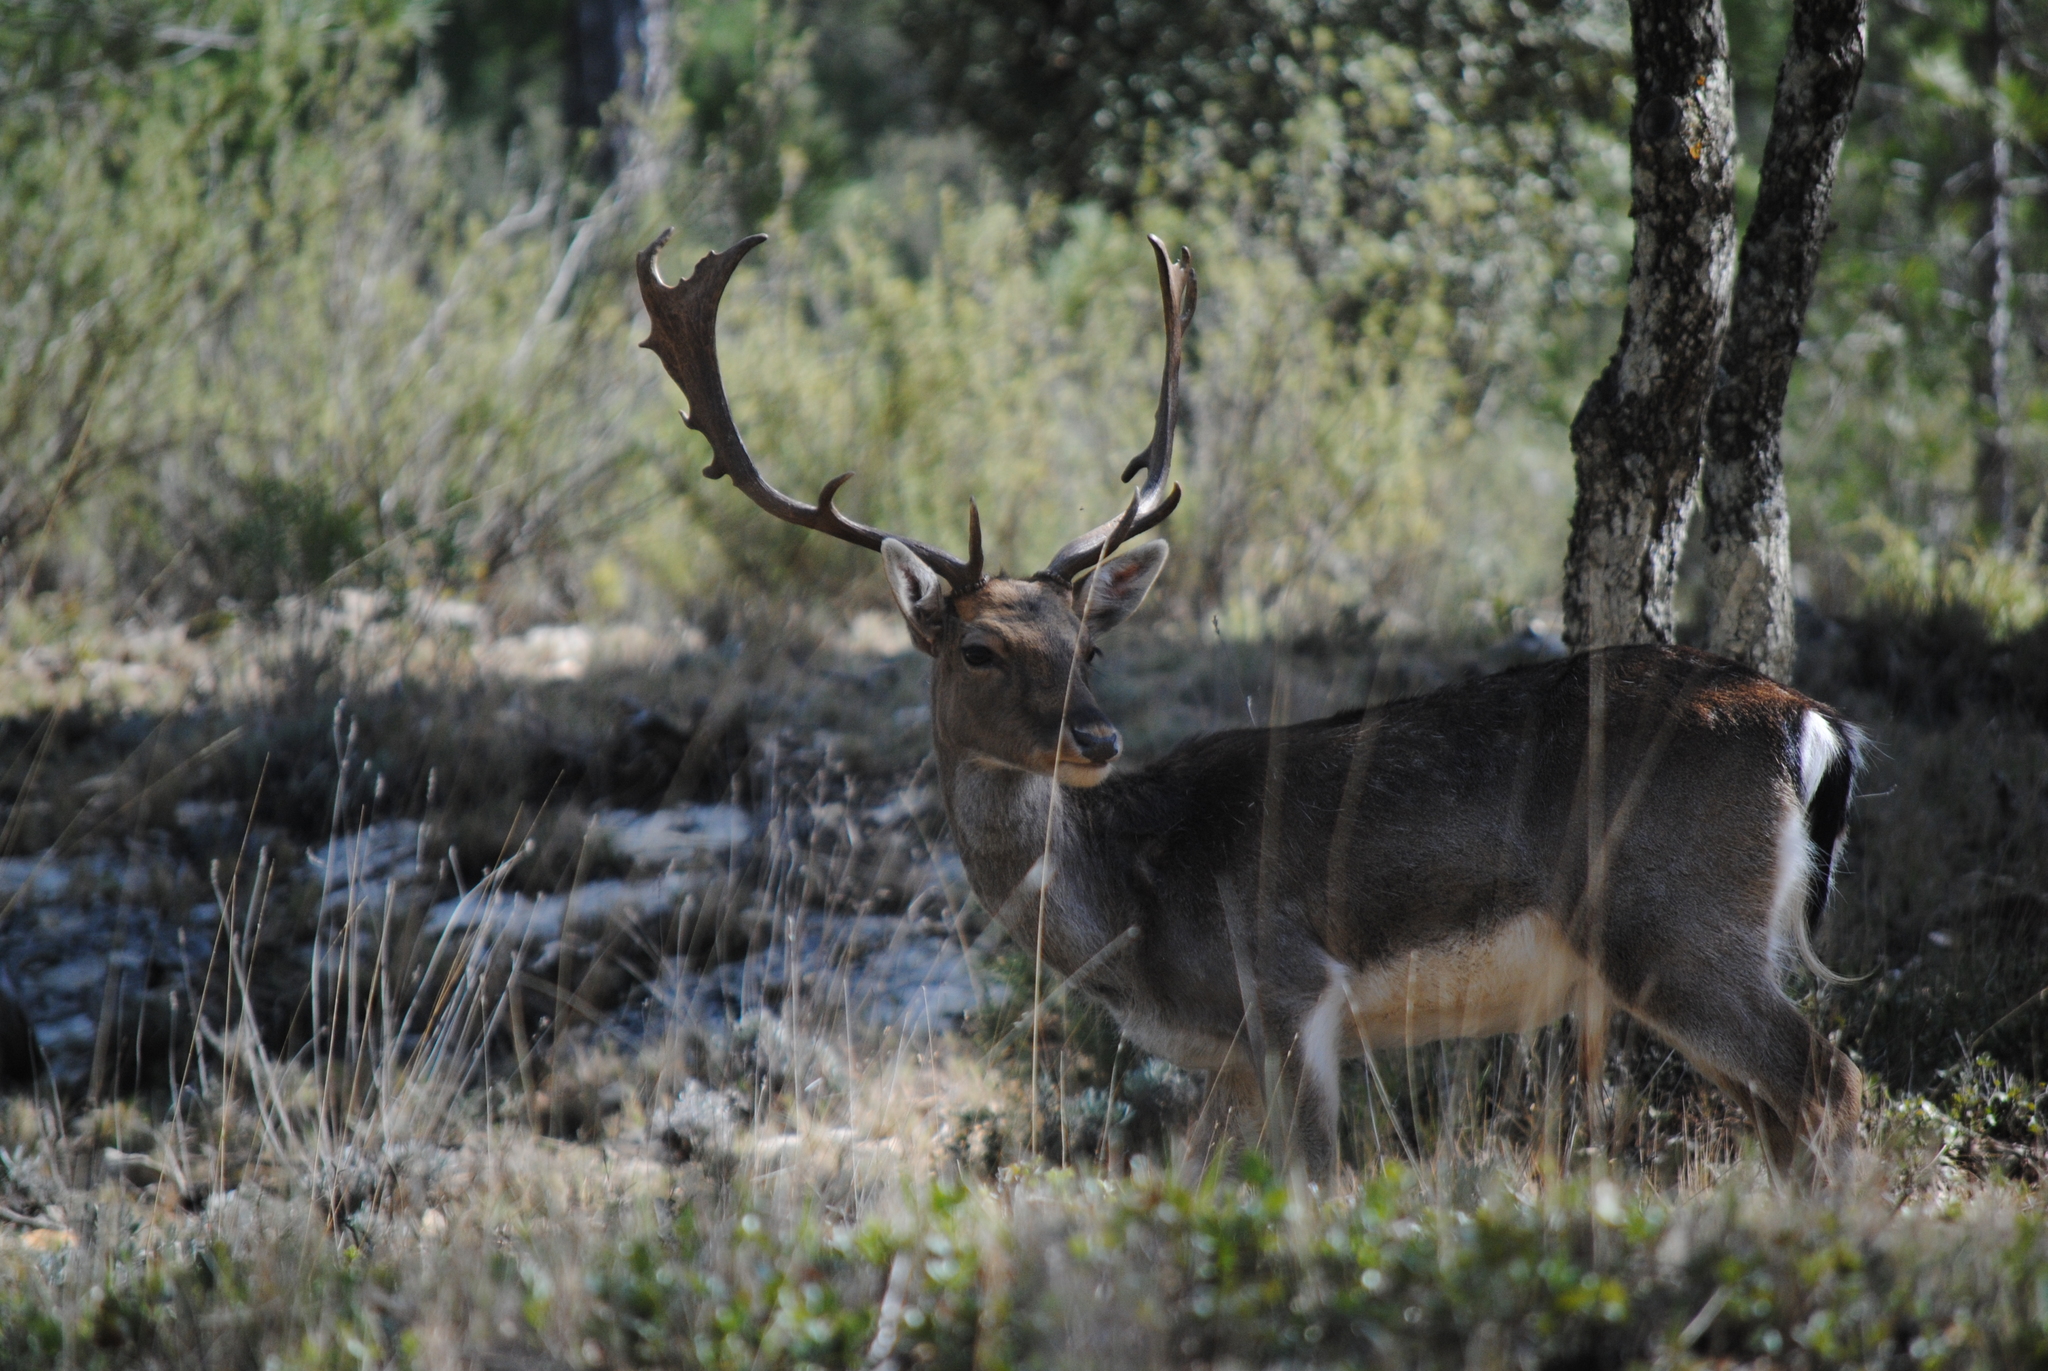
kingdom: Animalia
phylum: Chordata
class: Mammalia
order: Artiodactyla
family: Cervidae
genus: Dama
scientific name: Dama dama
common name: Fallow deer
